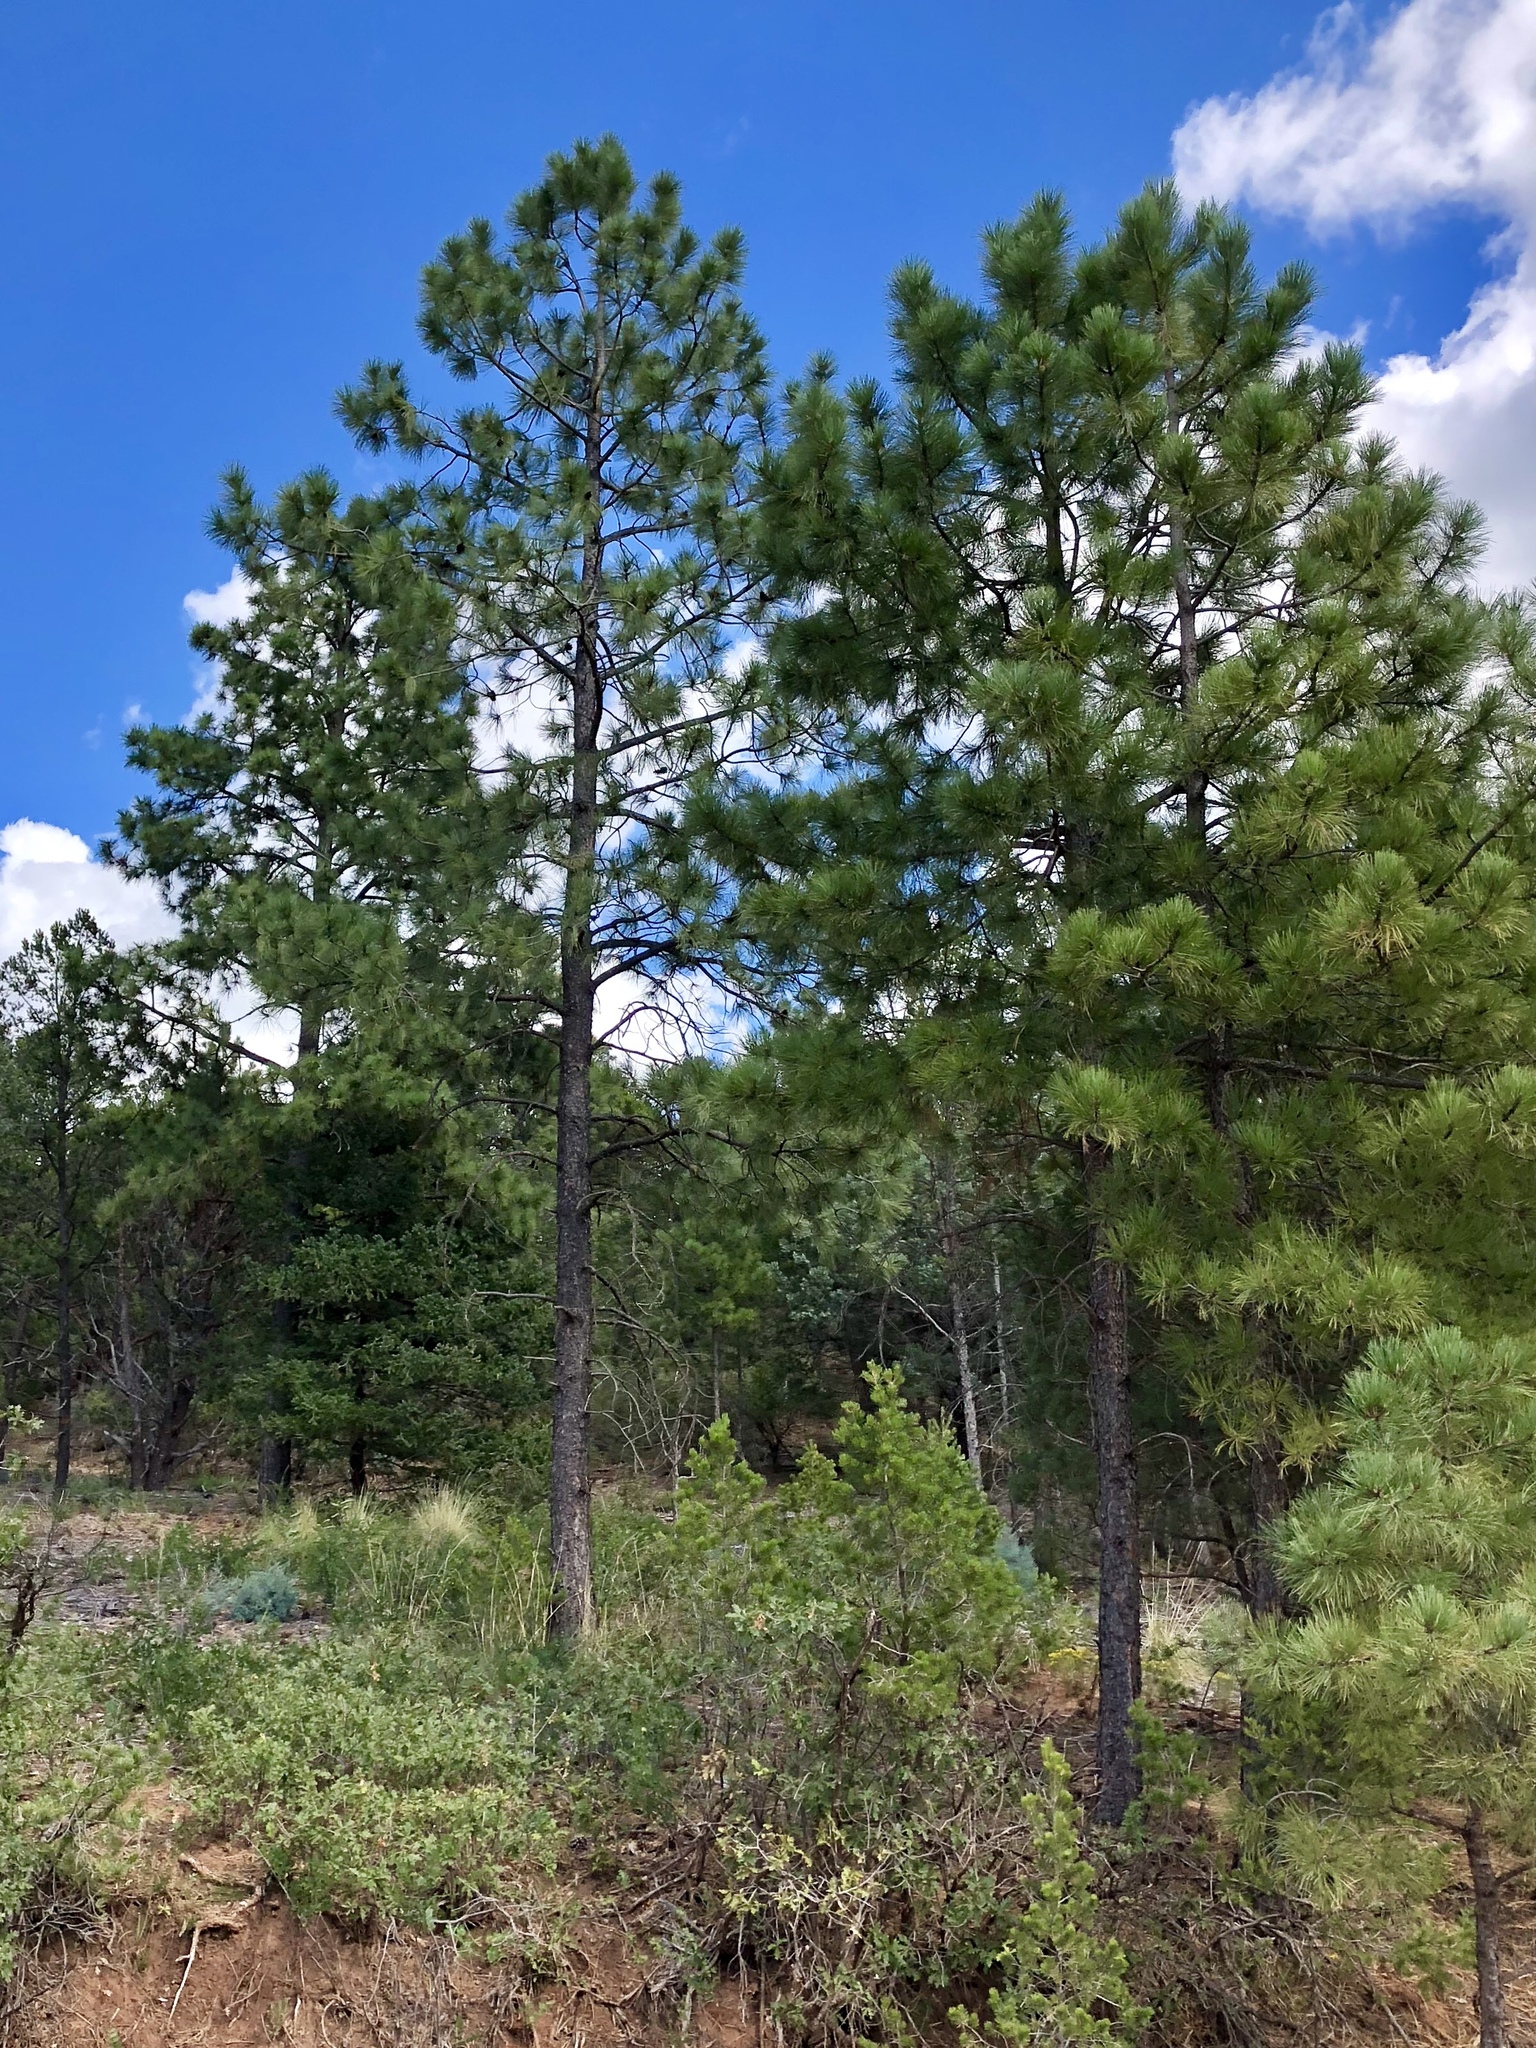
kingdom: Plantae
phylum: Tracheophyta
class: Pinopsida
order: Pinales
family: Pinaceae
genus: Pinus
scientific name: Pinus ponderosa
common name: Western yellow-pine
